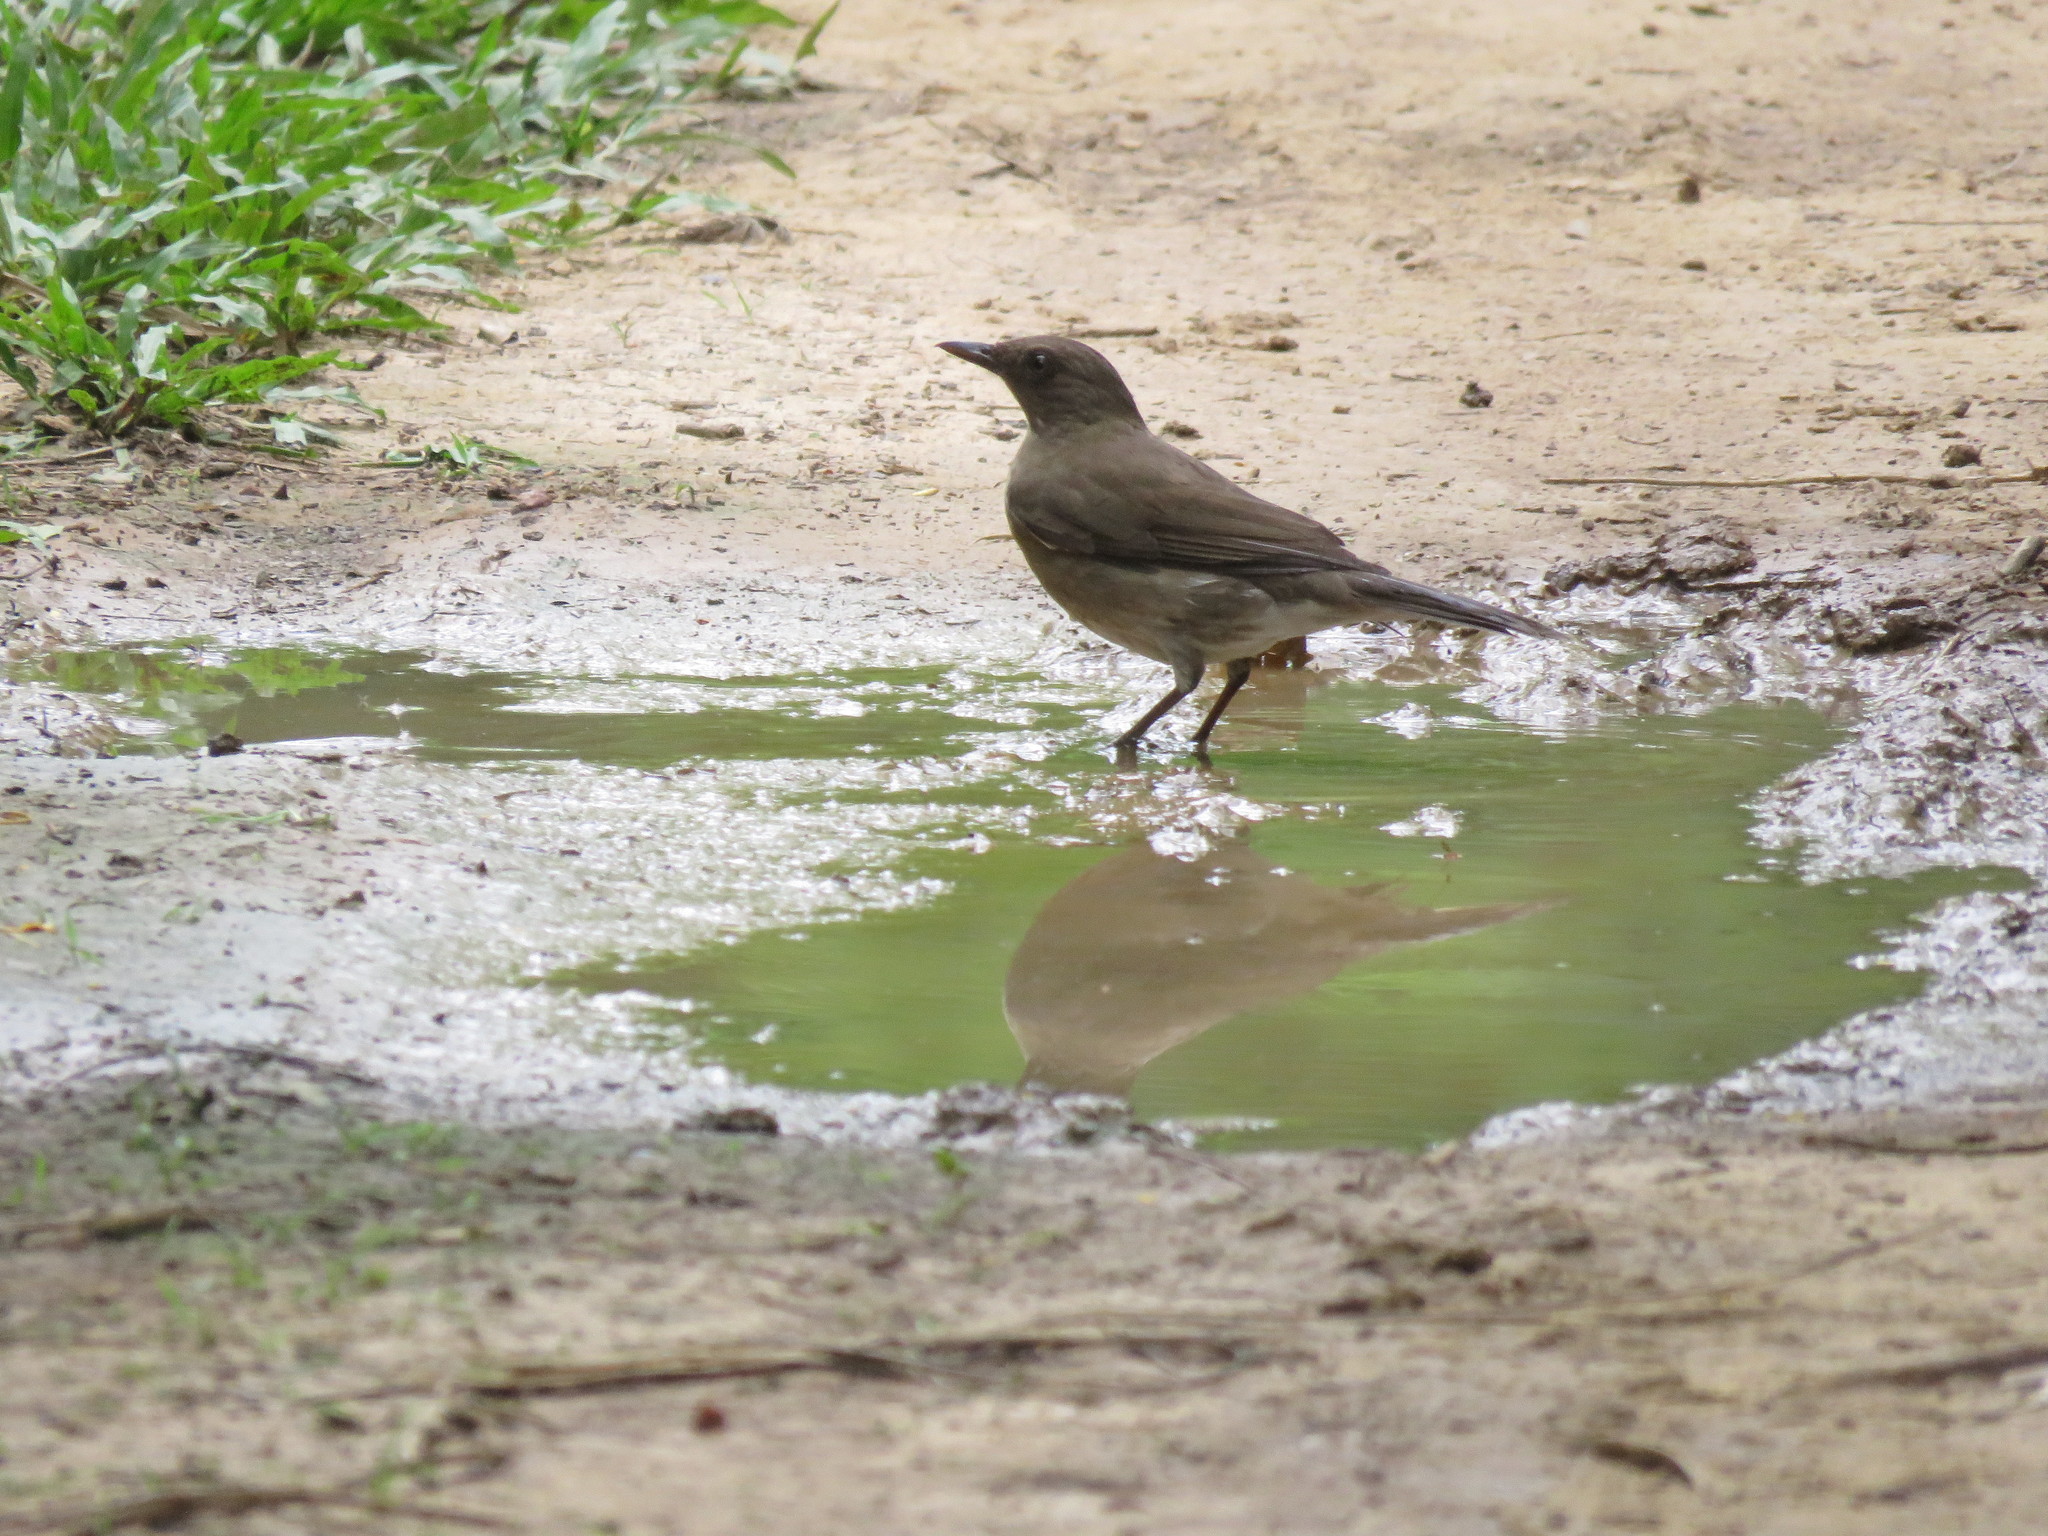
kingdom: Animalia
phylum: Chordata
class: Aves
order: Passeriformes
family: Turdidae
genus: Turdus
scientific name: Turdus ignobilis
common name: Black-billed thrush
